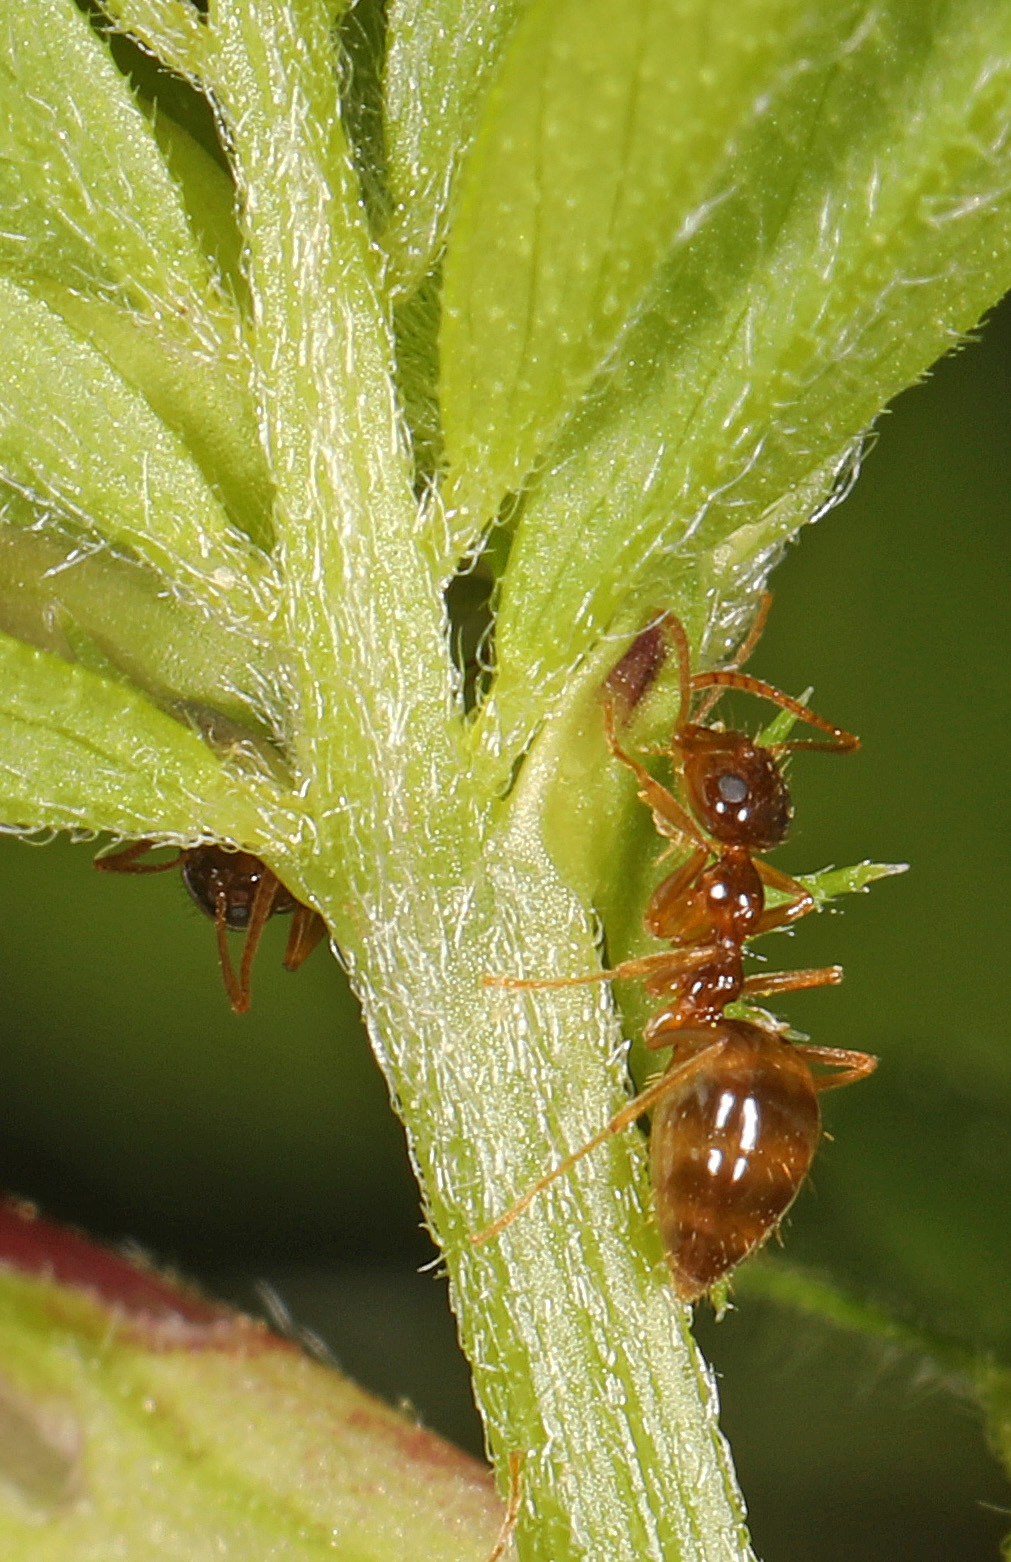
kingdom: Animalia
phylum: Arthropoda
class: Insecta
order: Hymenoptera
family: Formicidae
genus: Prenolepis
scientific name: Prenolepis imparis
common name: Small honey ant
